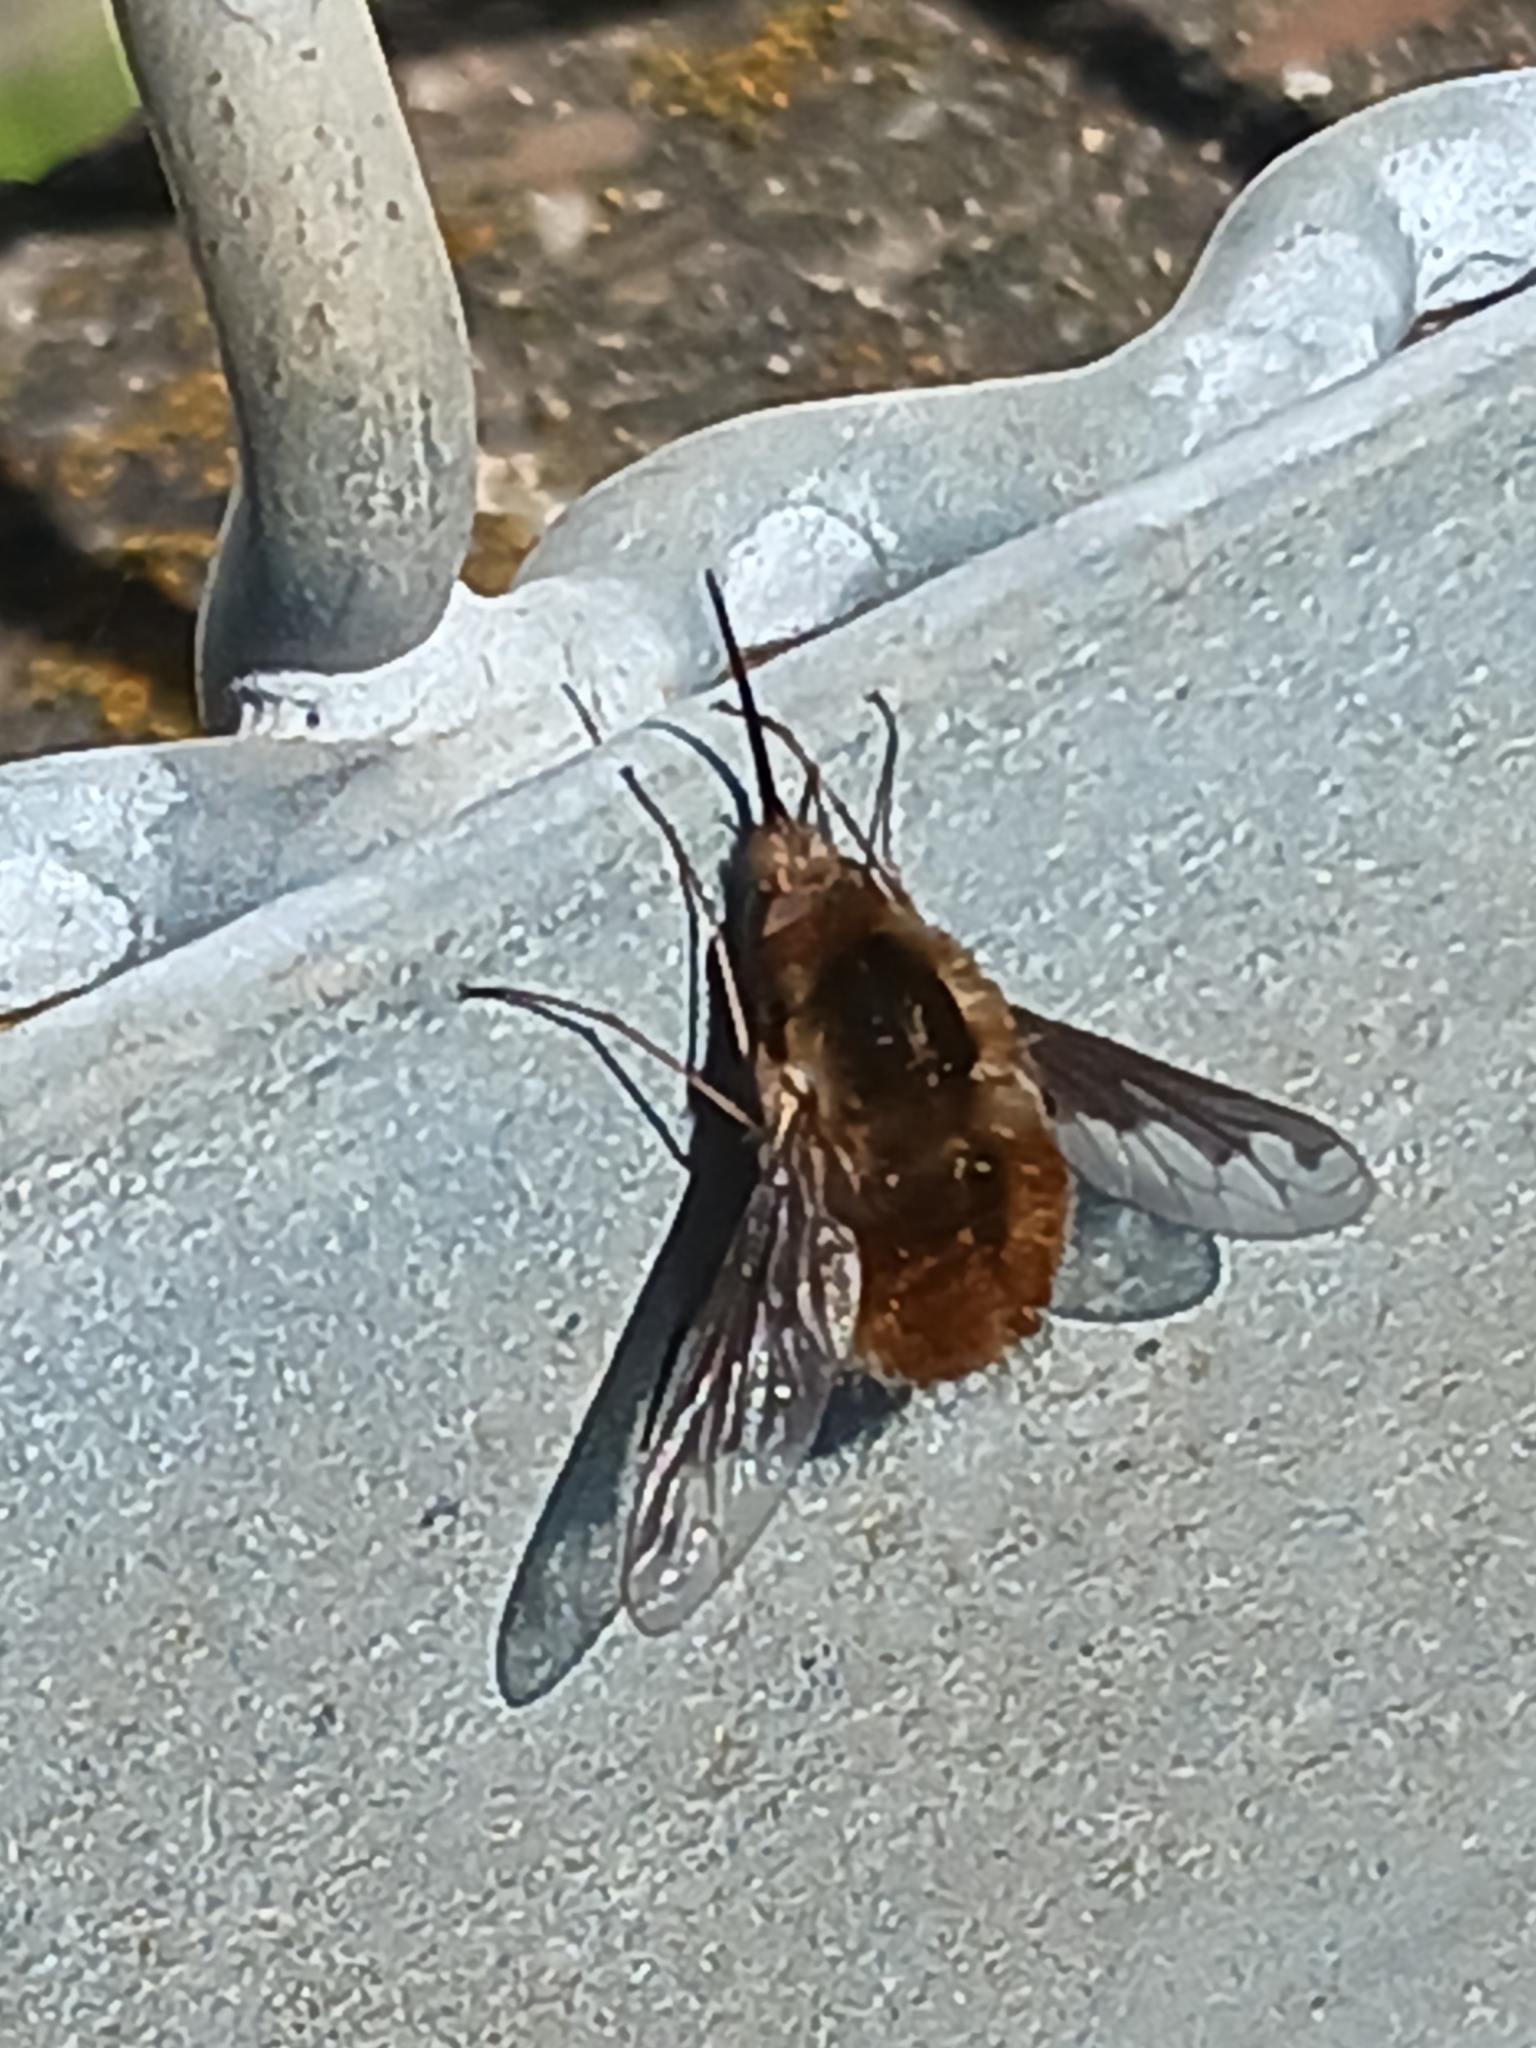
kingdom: Animalia
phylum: Arthropoda
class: Insecta
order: Diptera
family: Bombyliidae
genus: Bombylius
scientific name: Bombylius major
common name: Bee fly
